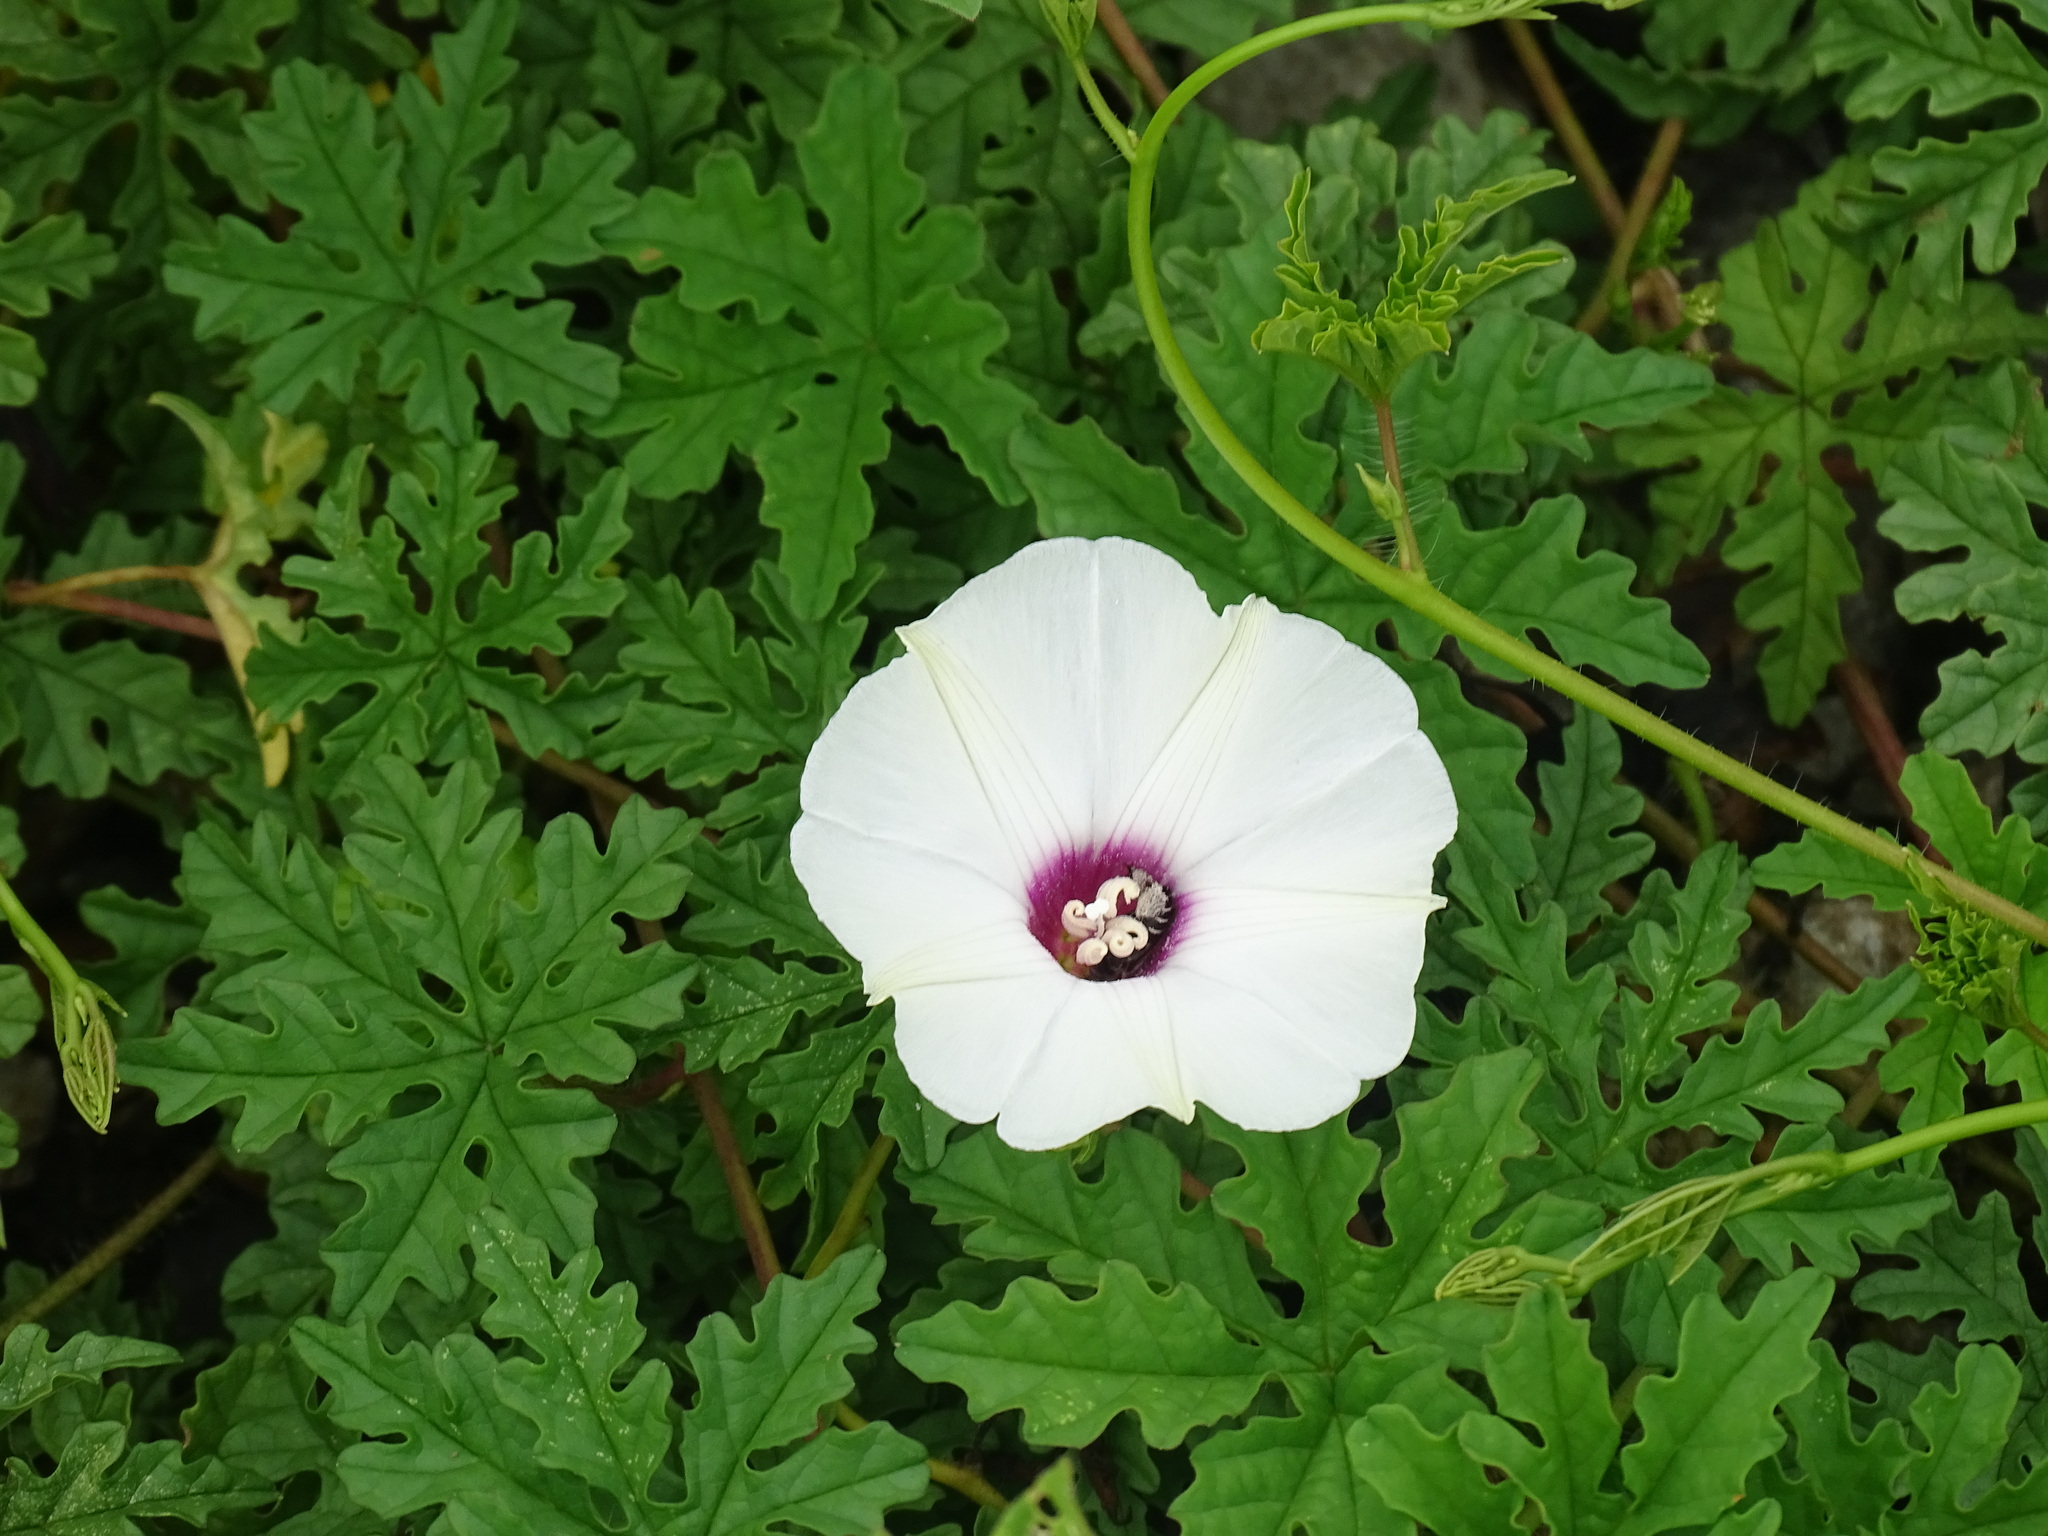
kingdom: Plantae
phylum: Tracheophyta
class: Magnoliopsida
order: Solanales
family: Convolvulaceae
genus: Distimake
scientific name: Distimake dissectus
